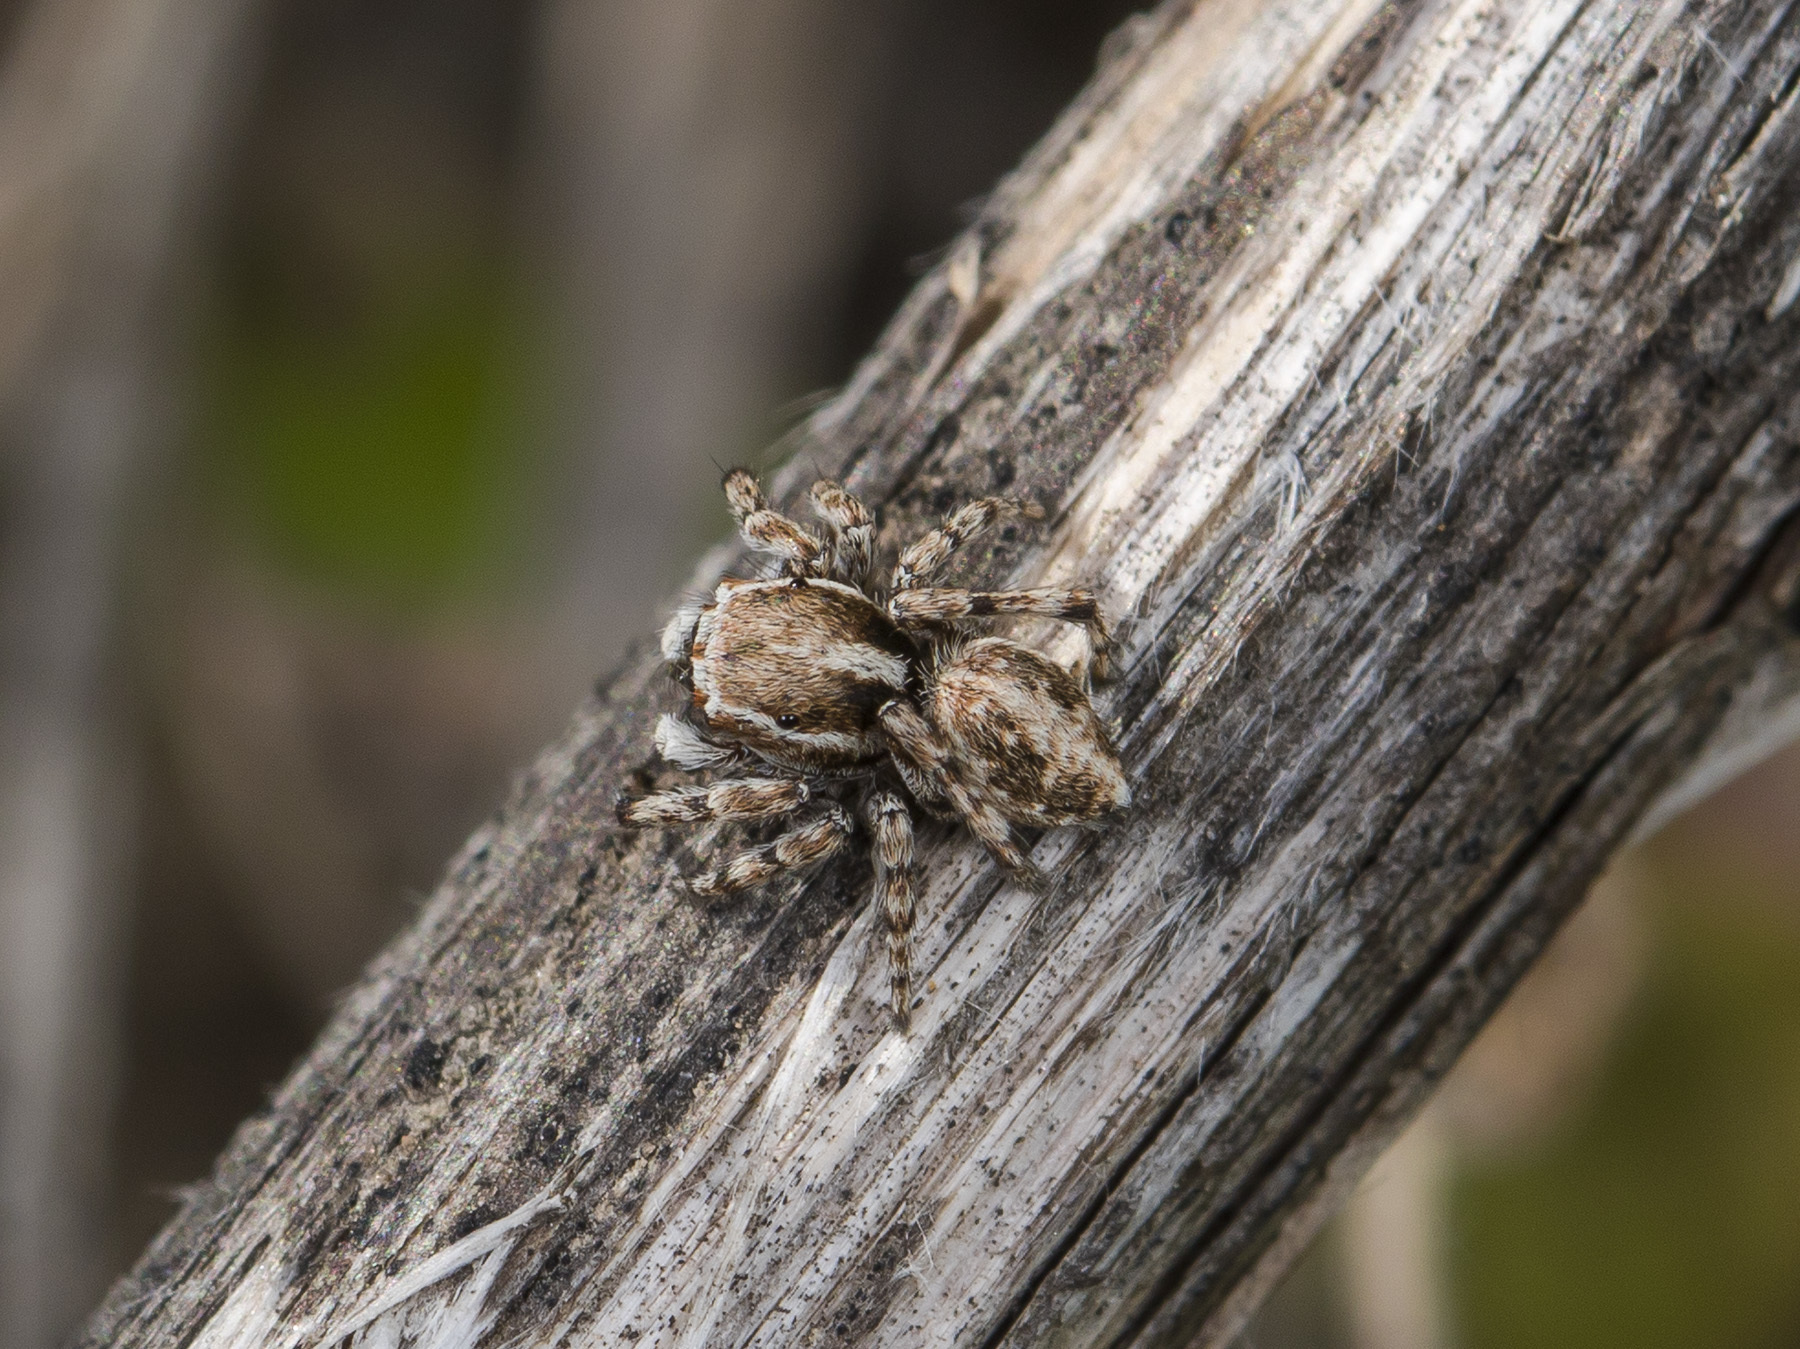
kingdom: Animalia
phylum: Arthropoda
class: Arachnida
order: Araneae
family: Salticidae
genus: Attulus
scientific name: Attulus avocator
